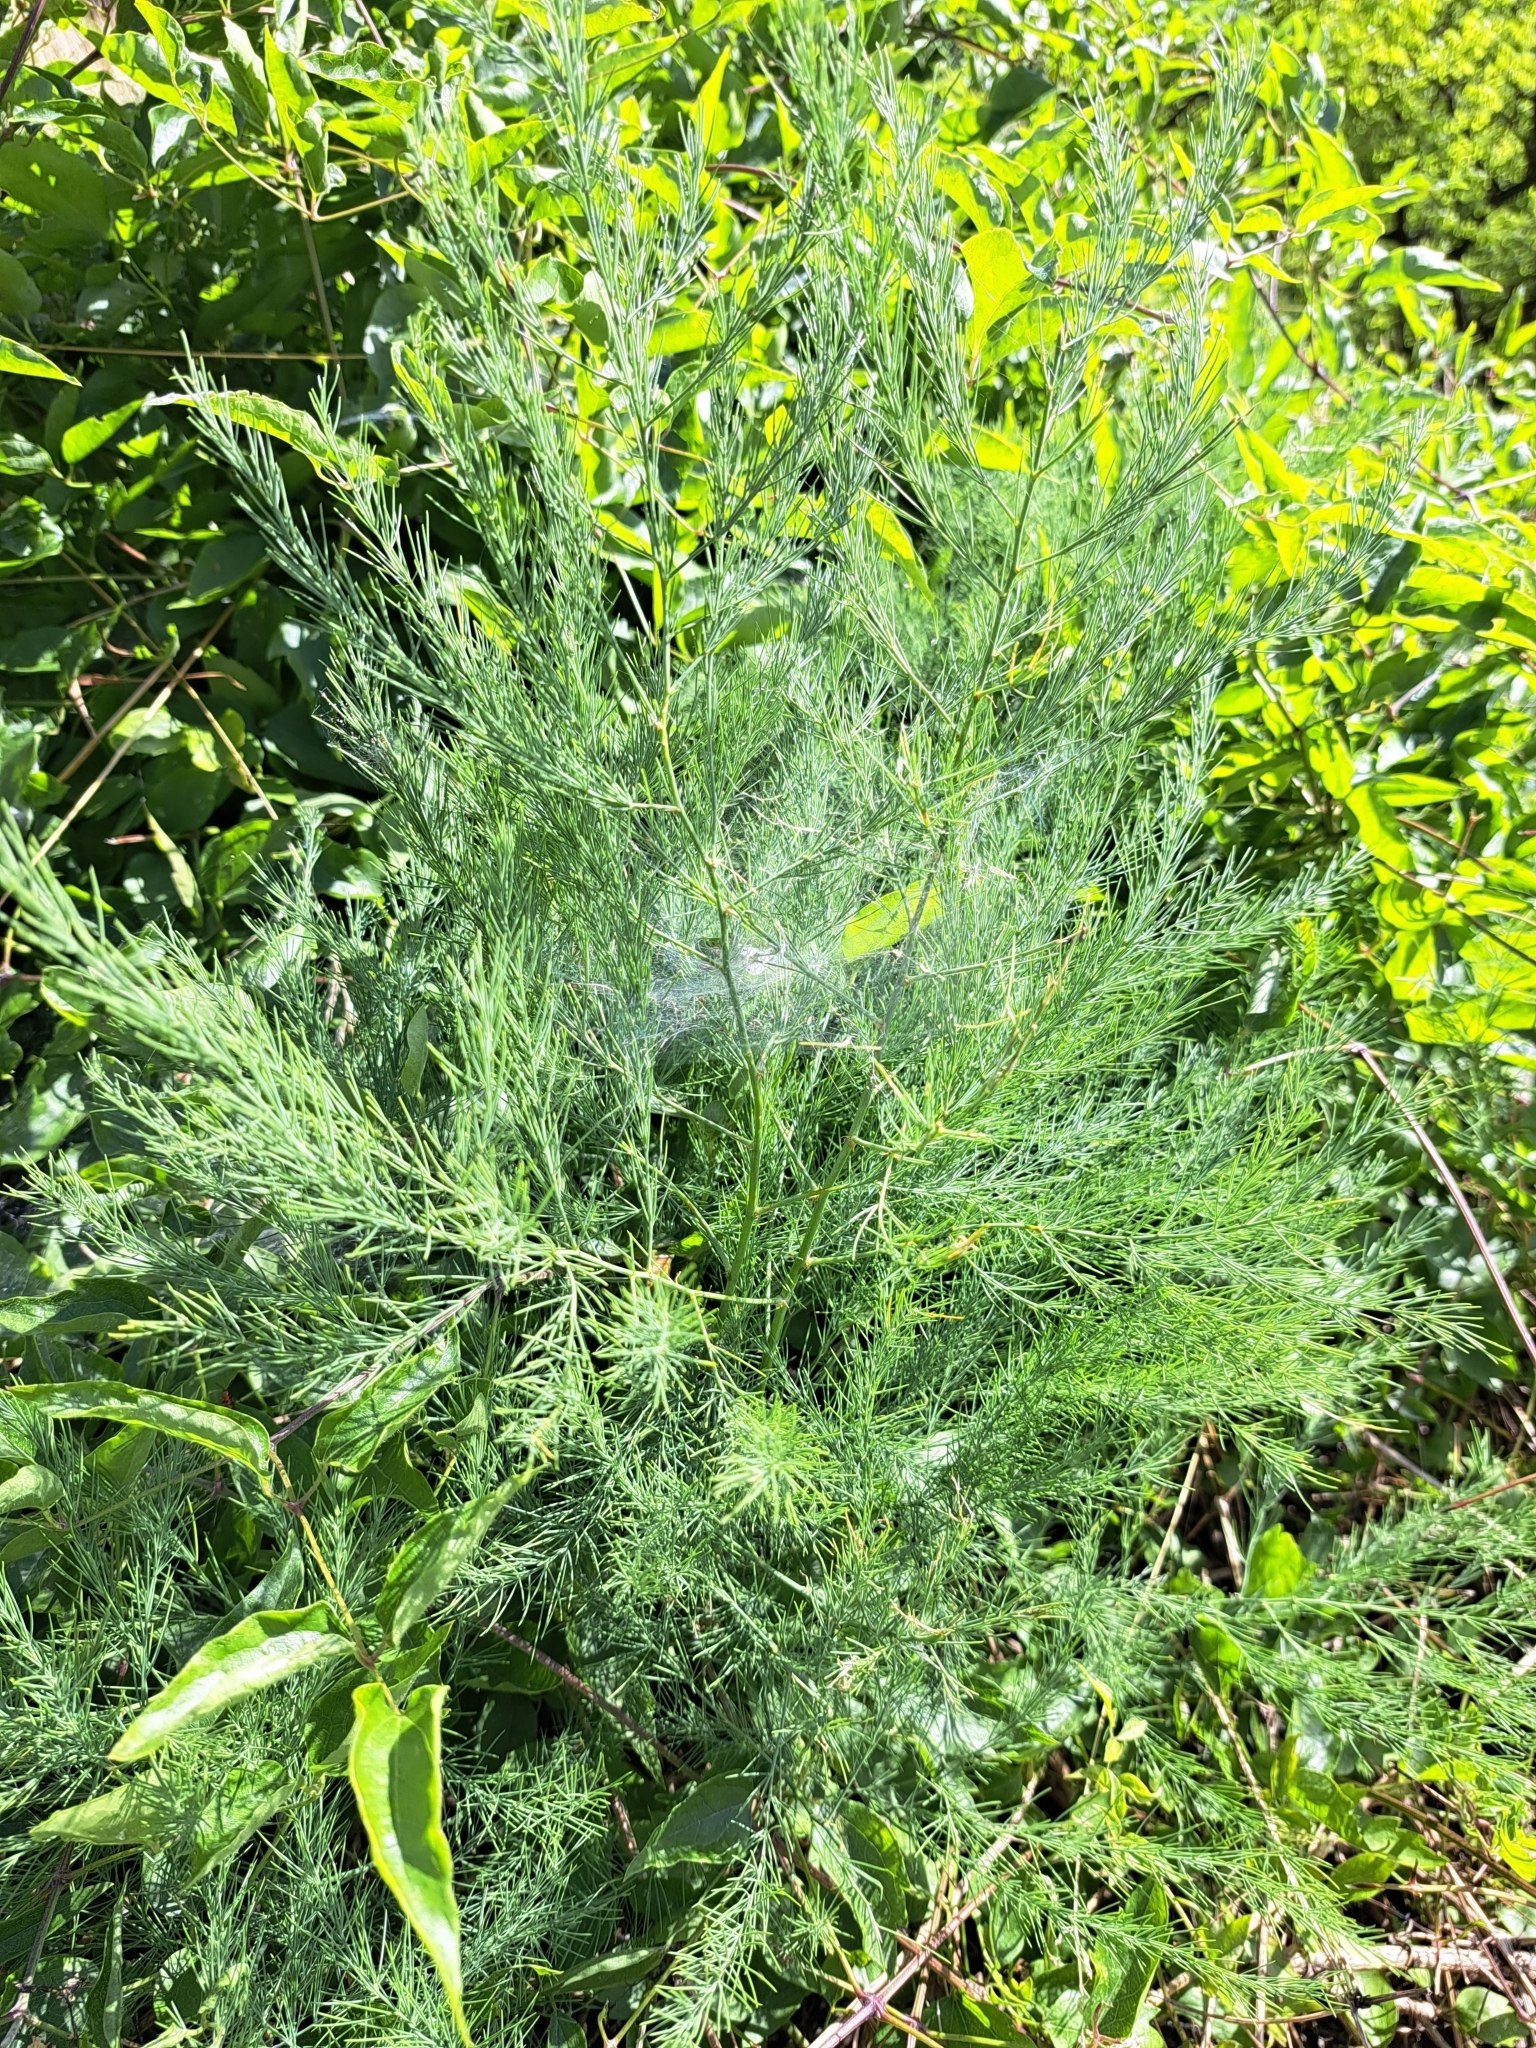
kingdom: Plantae
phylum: Tracheophyta
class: Liliopsida
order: Asparagales
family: Asparagaceae
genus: Asparagus
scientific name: Asparagus officinalis
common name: Garden asparagus
